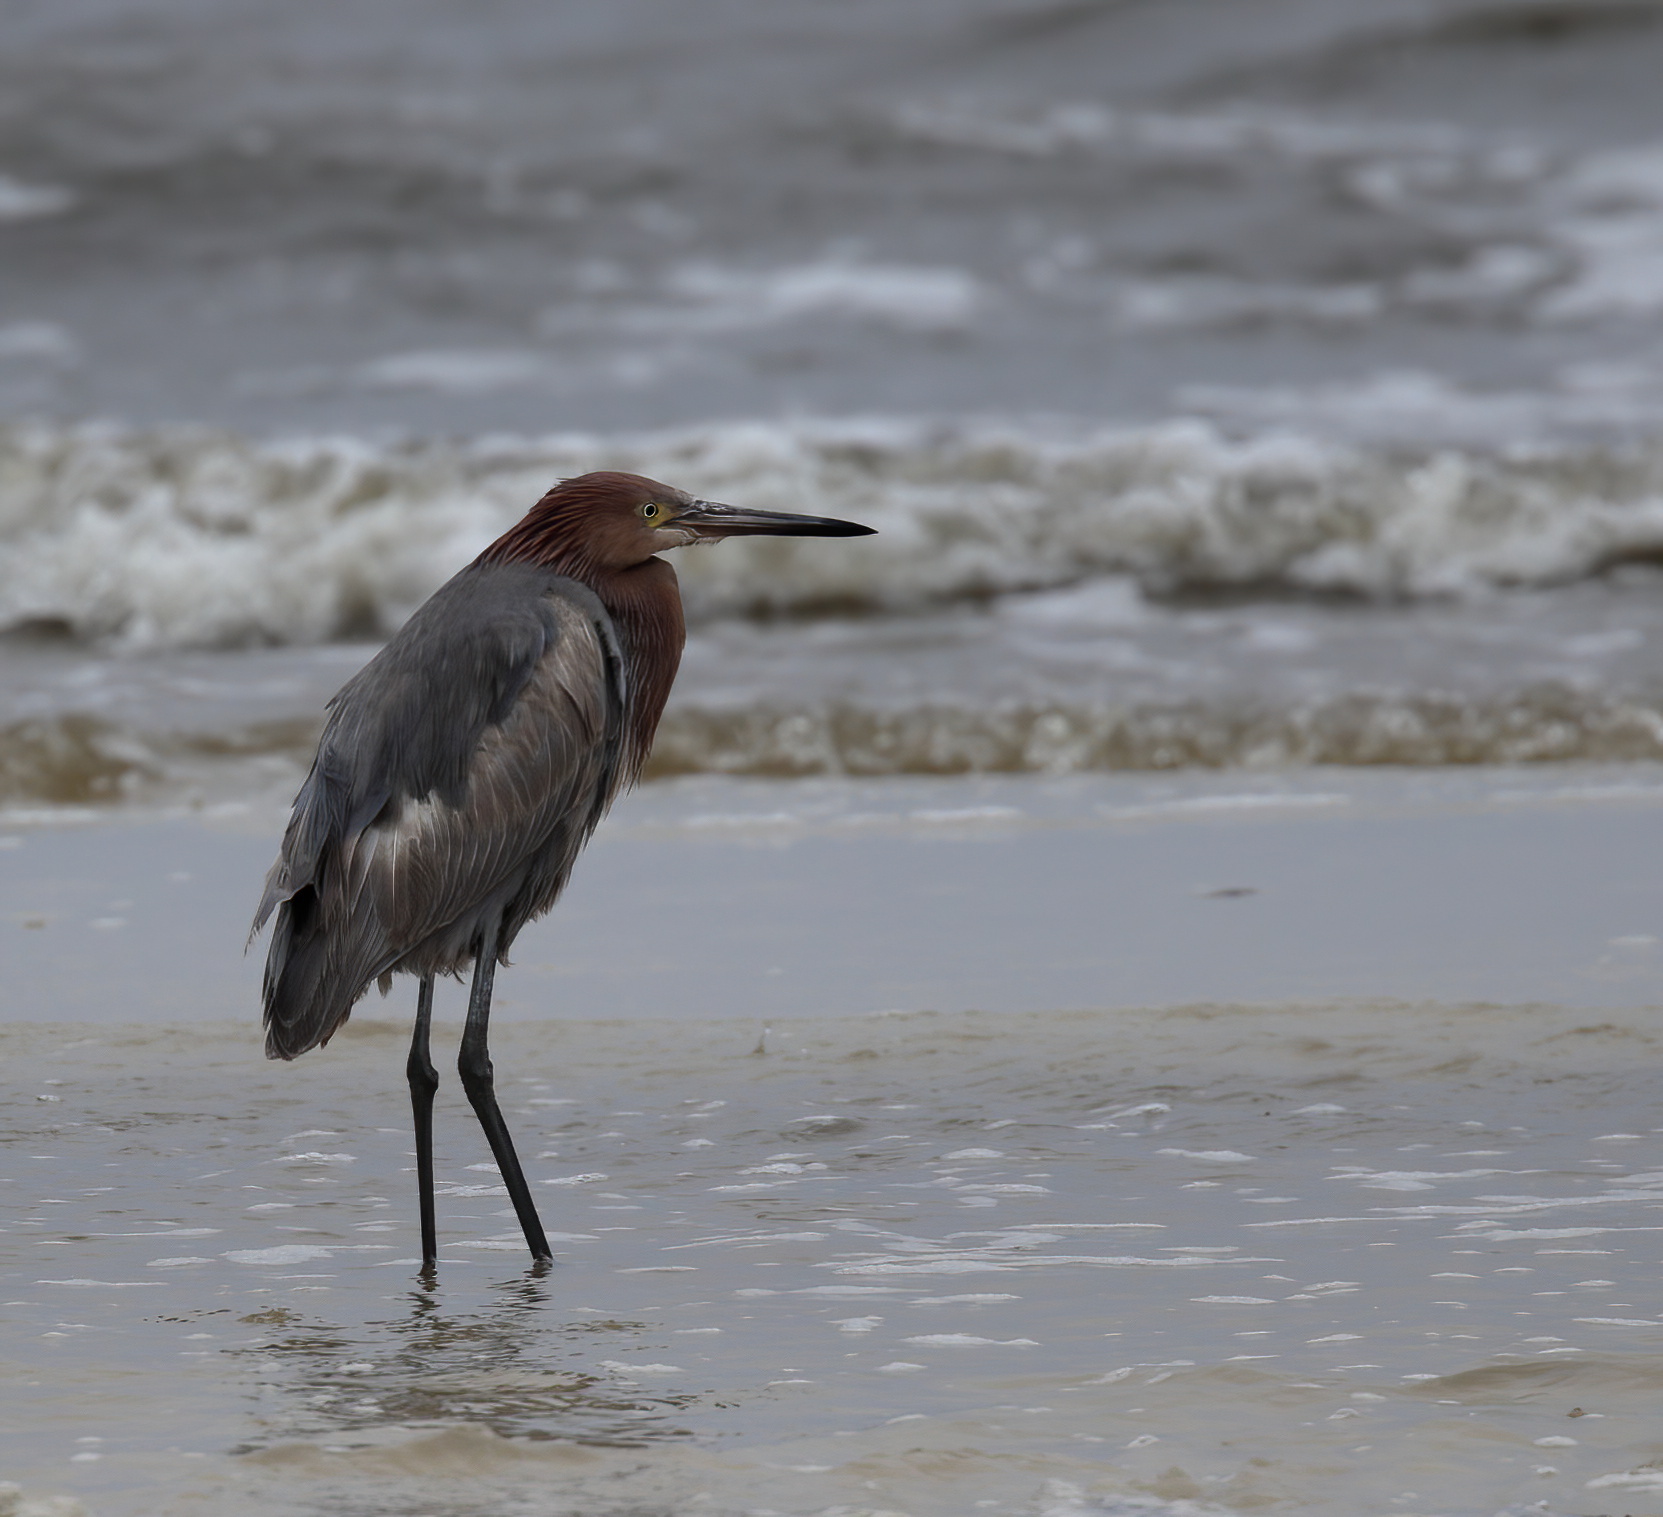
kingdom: Animalia
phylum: Chordata
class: Aves
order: Pelecaniformes
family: Ardeidae
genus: Egretta
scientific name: Egretta rufescens
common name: Reddish egret
